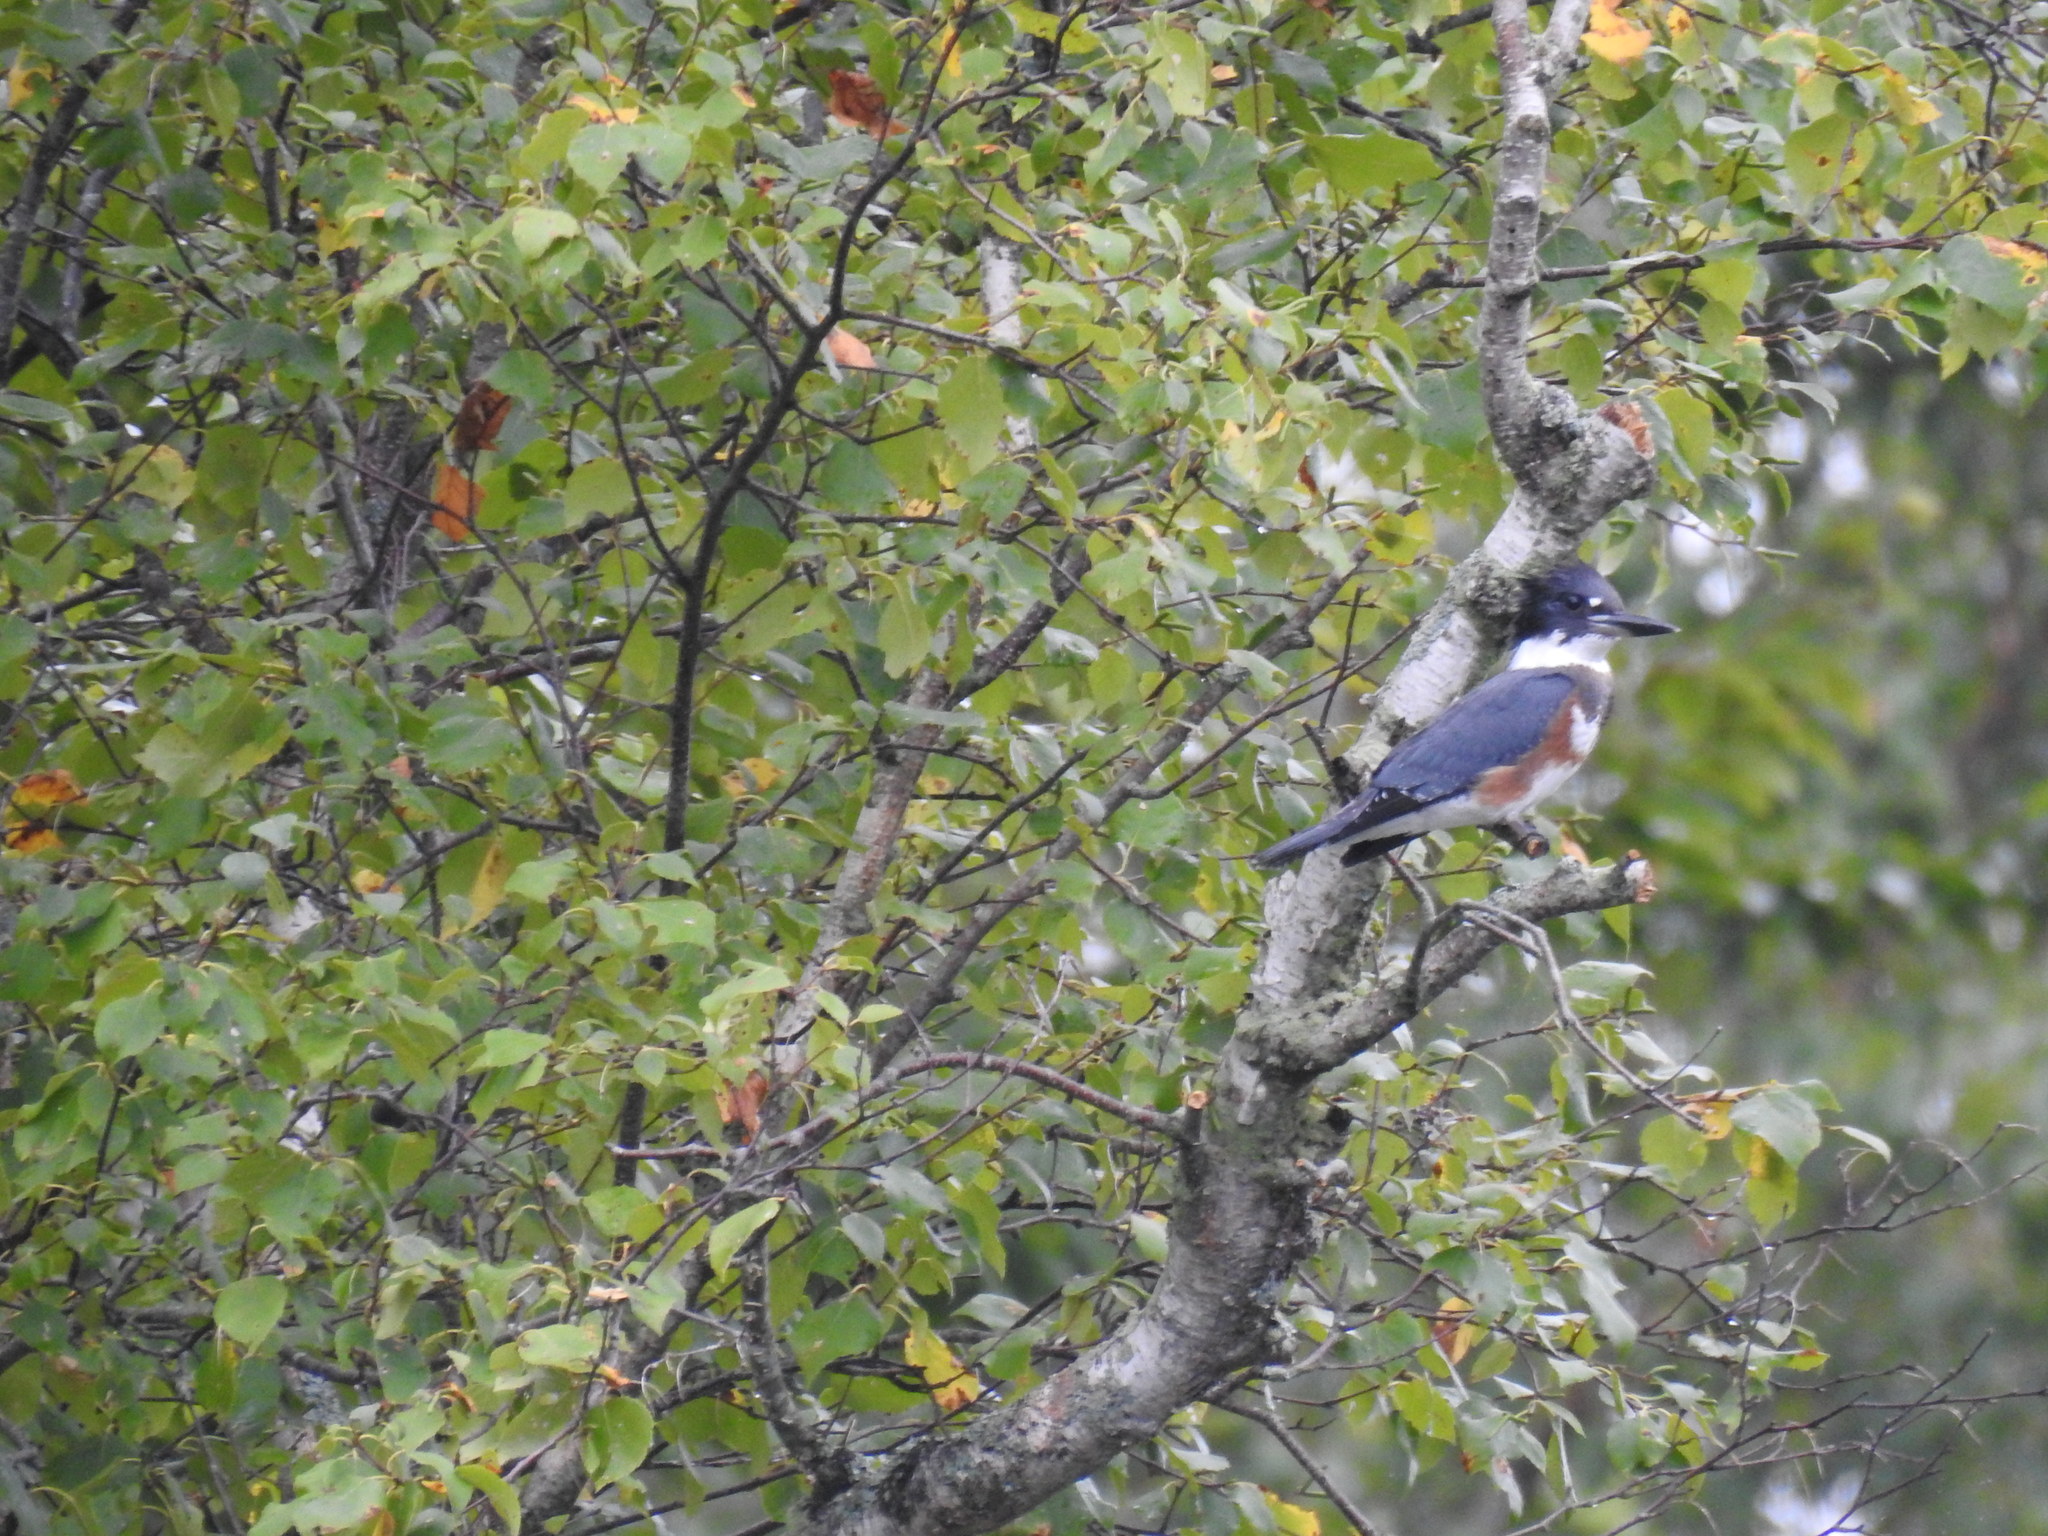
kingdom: Animalia
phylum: Chordata
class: Aves
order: Coraciiformes
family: Alcedinidae
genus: Megaceryle
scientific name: Megaceryle alcyon
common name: Belted kingfisher
